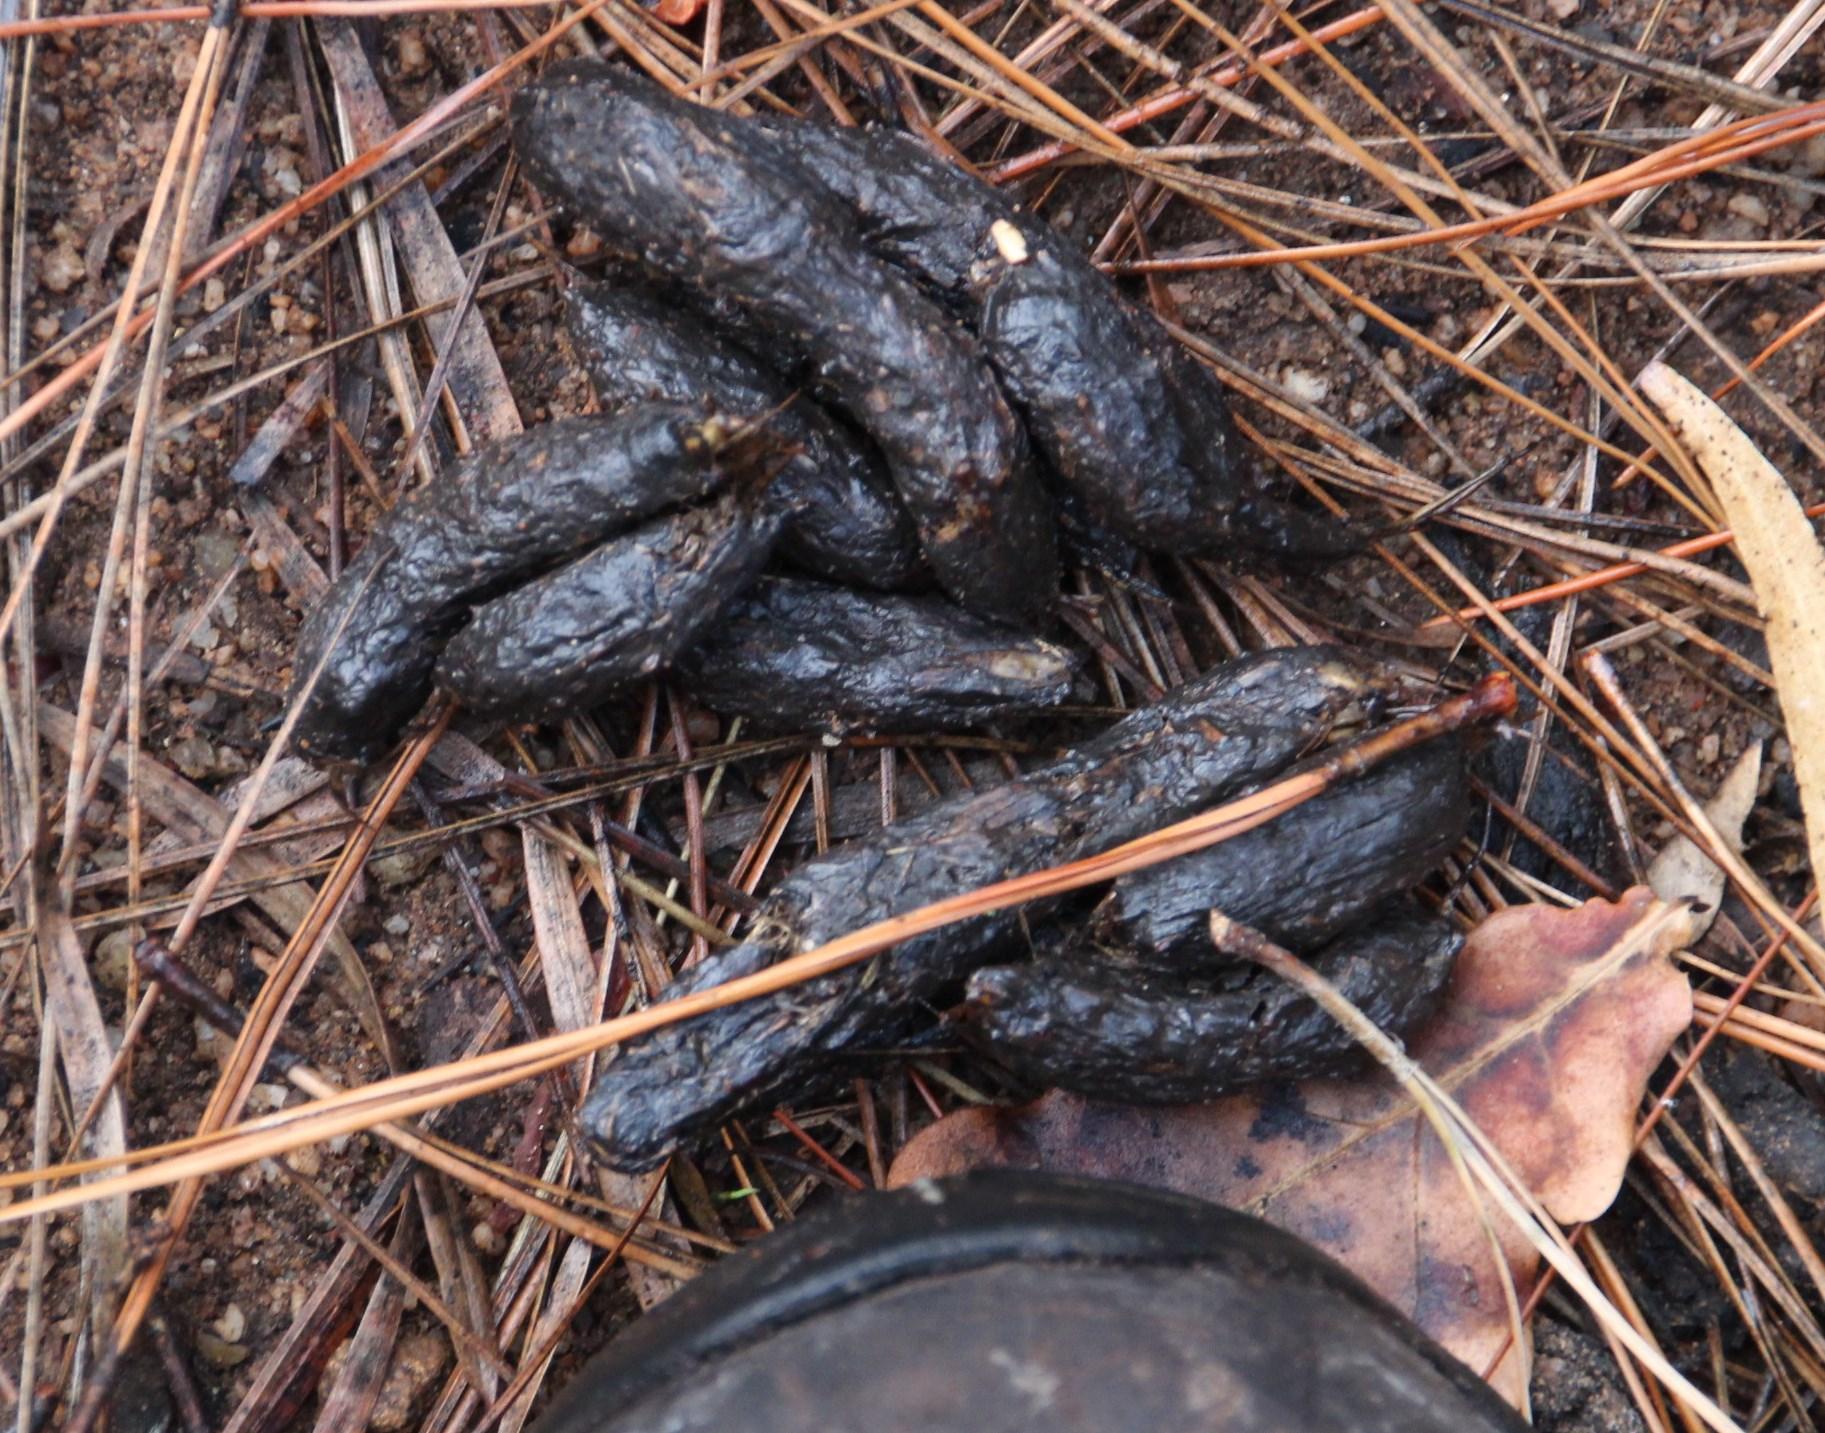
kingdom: Animalia
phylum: Chordata
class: Mammalia
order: Rodentia
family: Hystricidae
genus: Hystrix
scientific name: Hystrix africaeaustralis
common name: Cape porcupine
